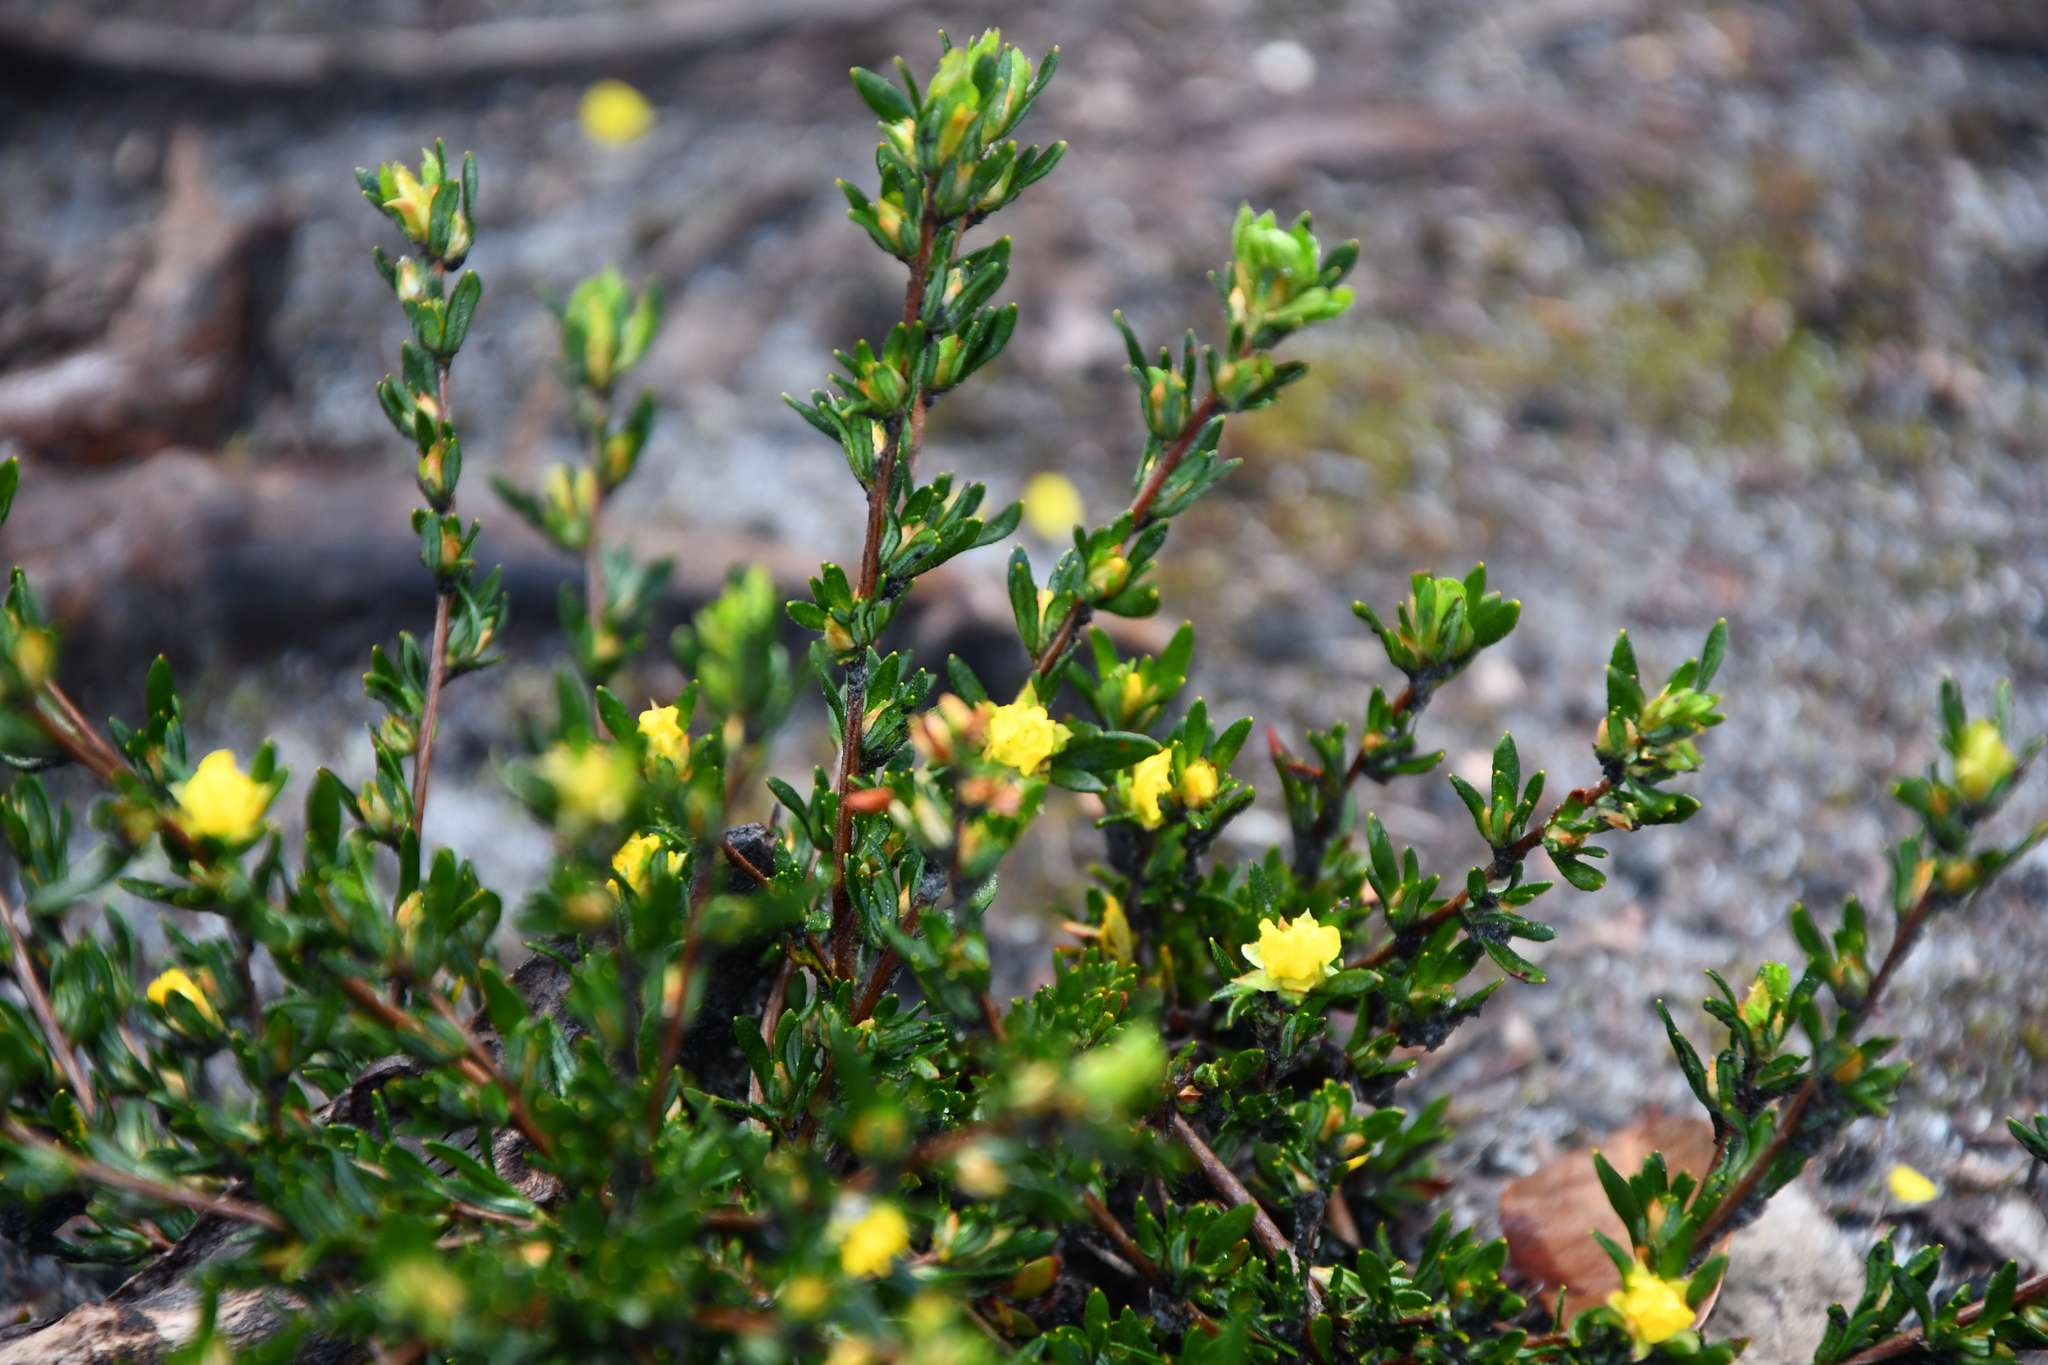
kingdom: Plantae
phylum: Tracheophyta
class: Magnoliopsida
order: Dilleniales
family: Dilleniaceae
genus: Hibbertia
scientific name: Hibbertia trichocalyx
